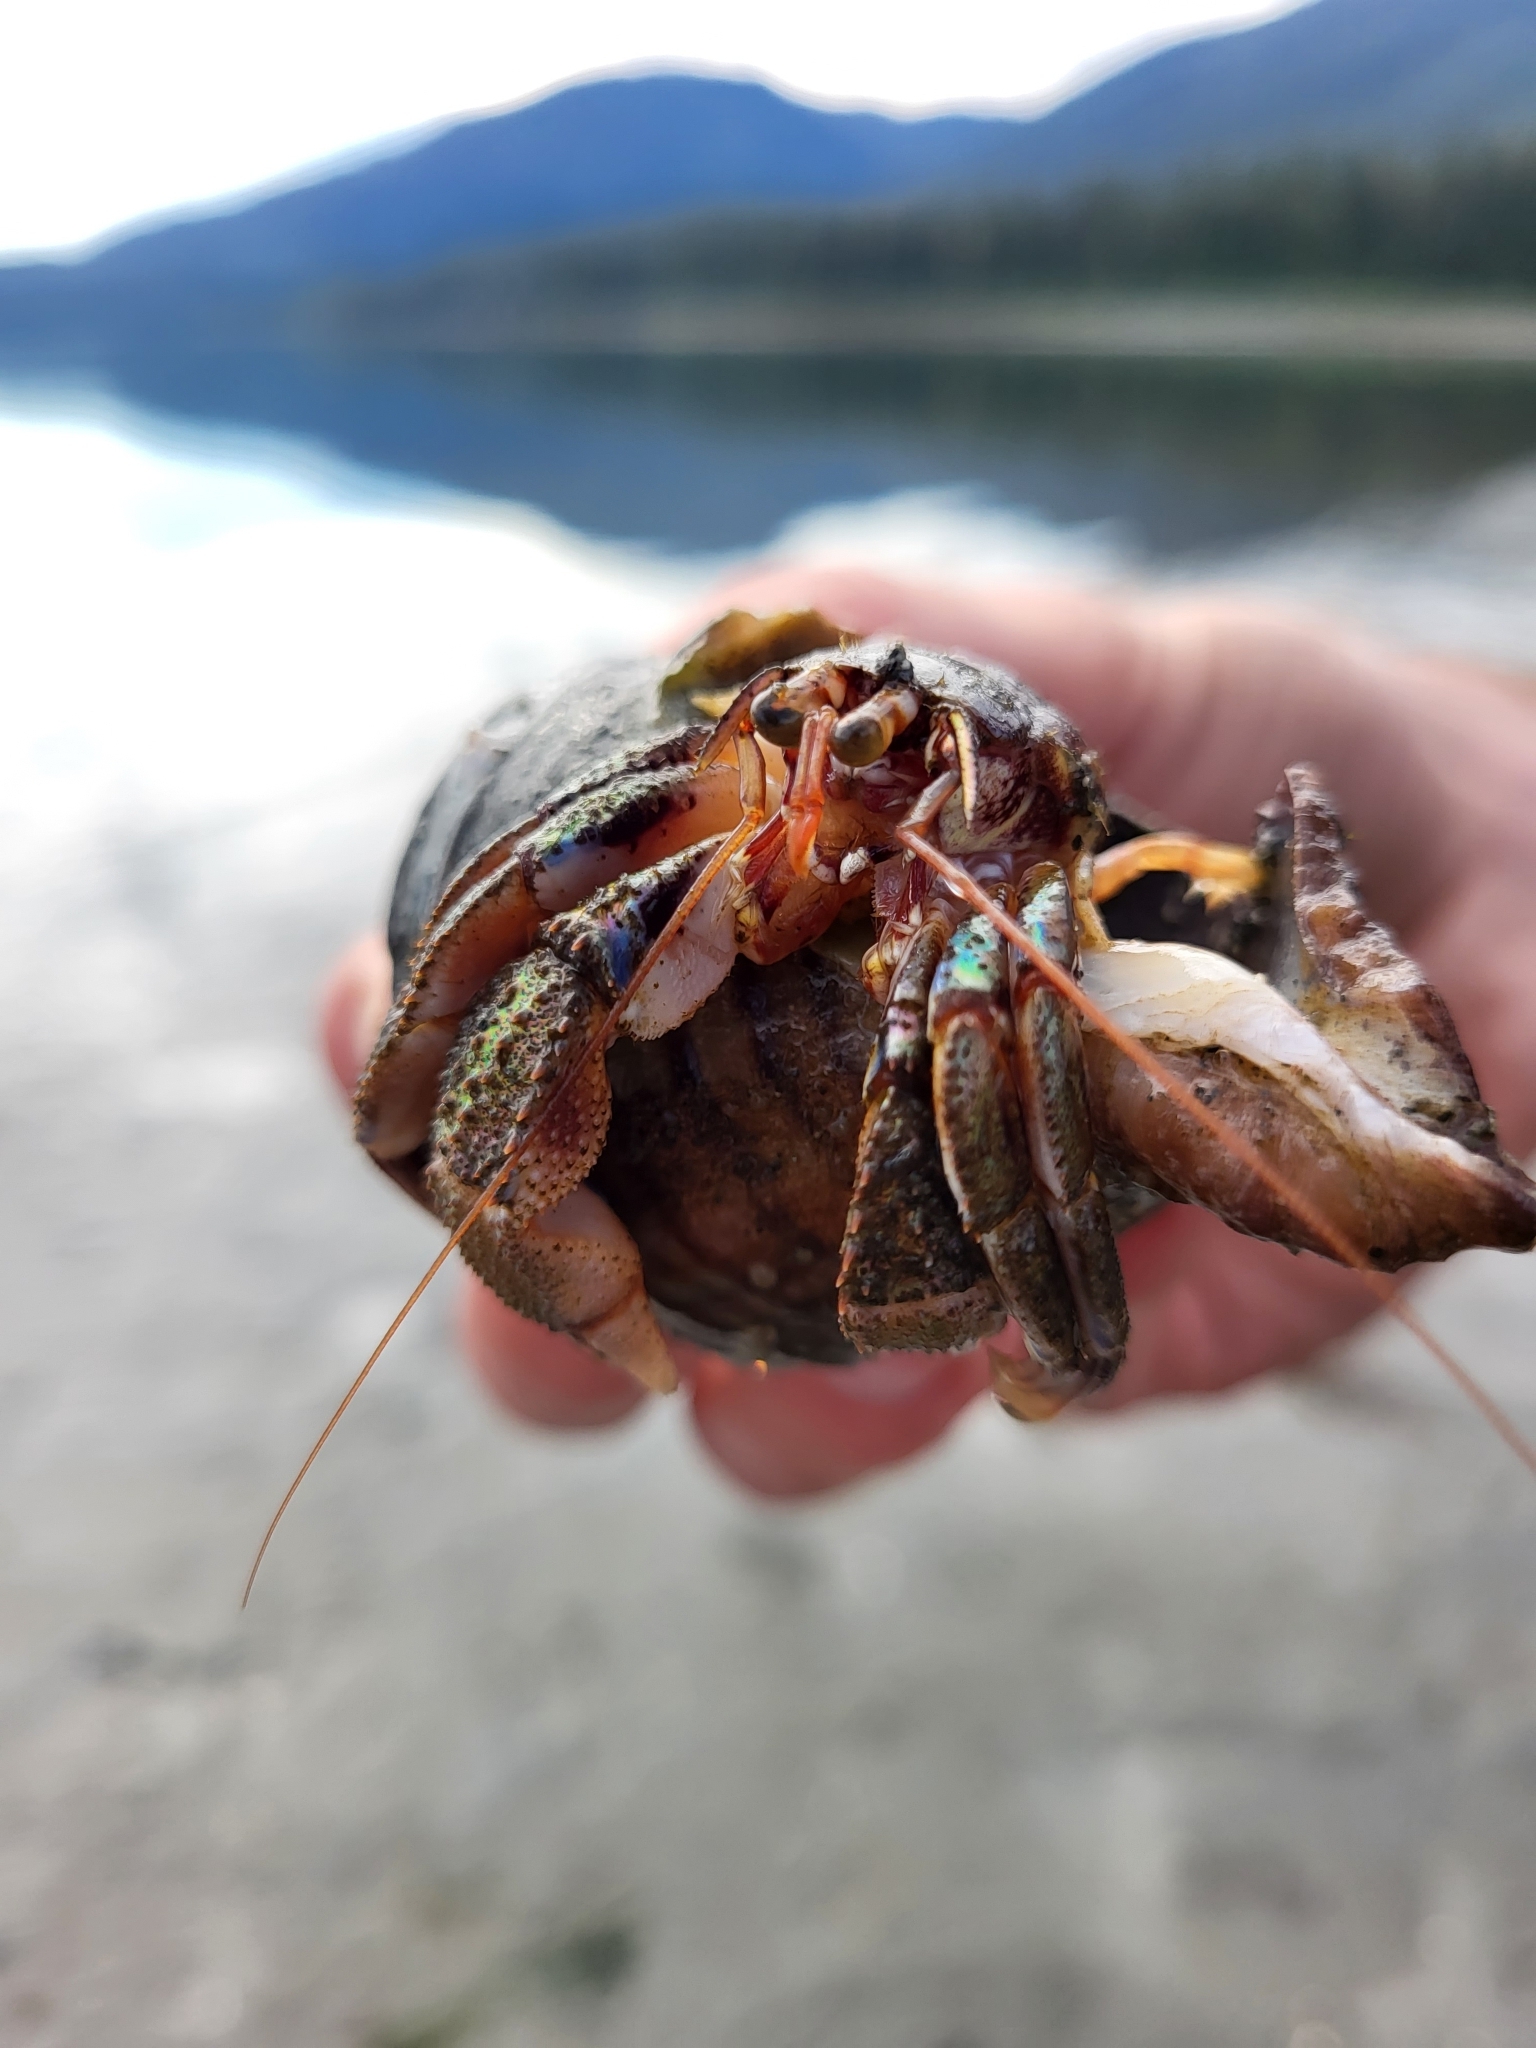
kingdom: Animalia
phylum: Arthropoda
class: Malacostraca
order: Decapoda
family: Paguridae
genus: Pagurus
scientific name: Pagurus ochotensis
